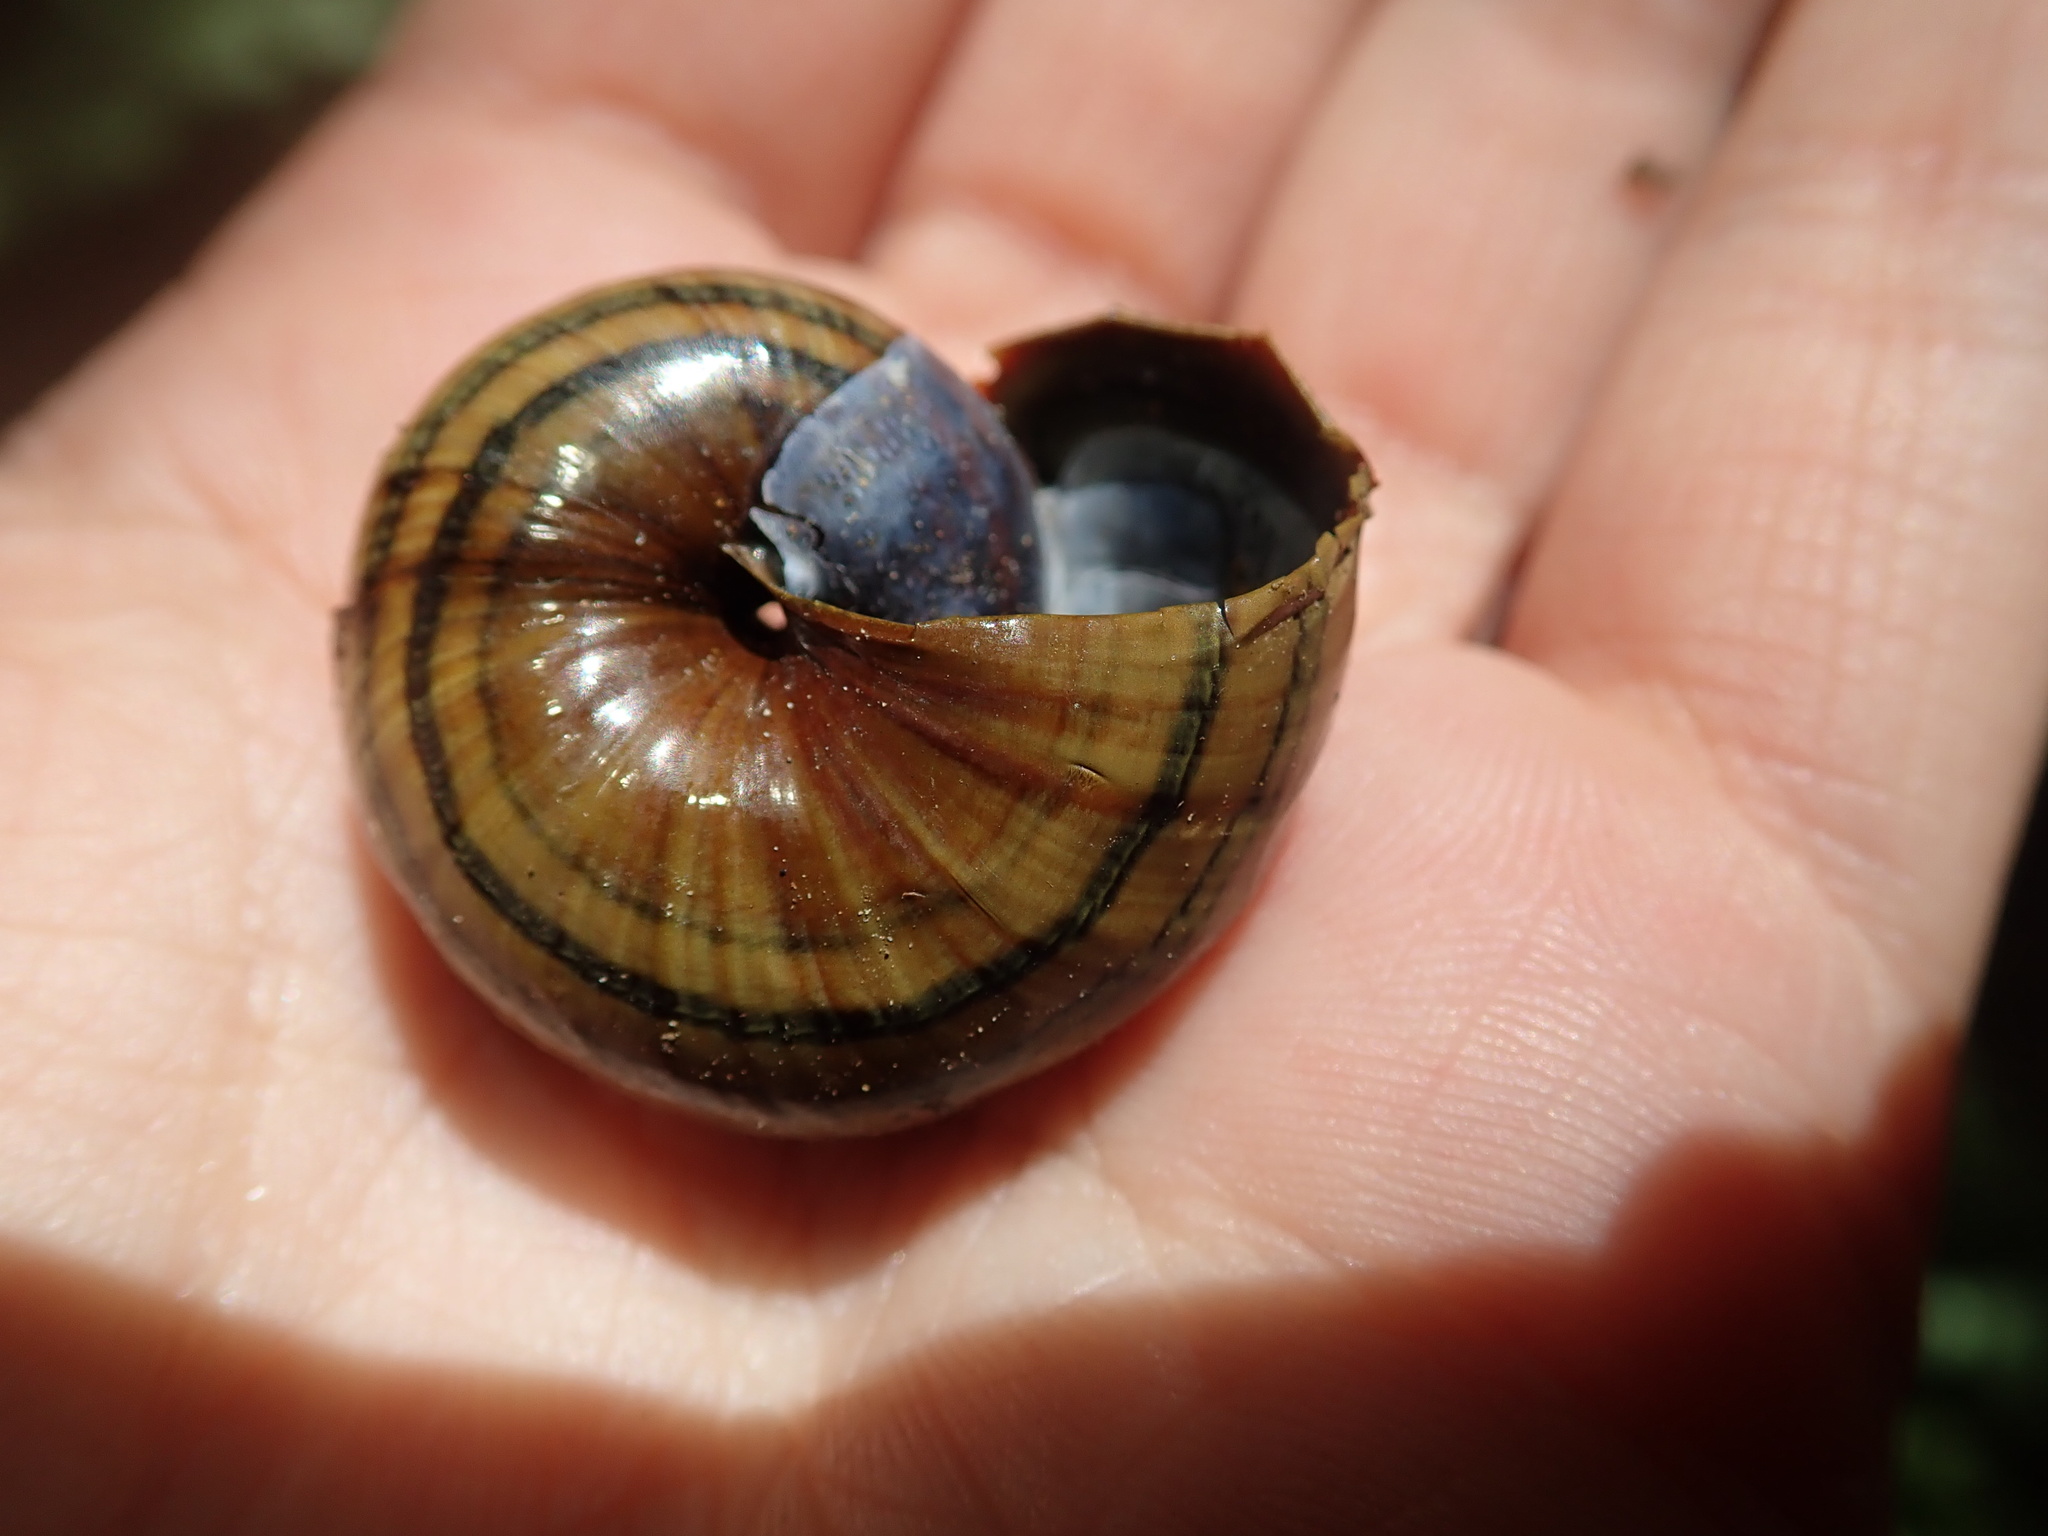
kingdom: Animalia
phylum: Mollusca
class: Gastropoda
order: Stylommatophora
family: Rhytididae
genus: Powelliphanta
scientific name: Powelliphanta gilliesi
